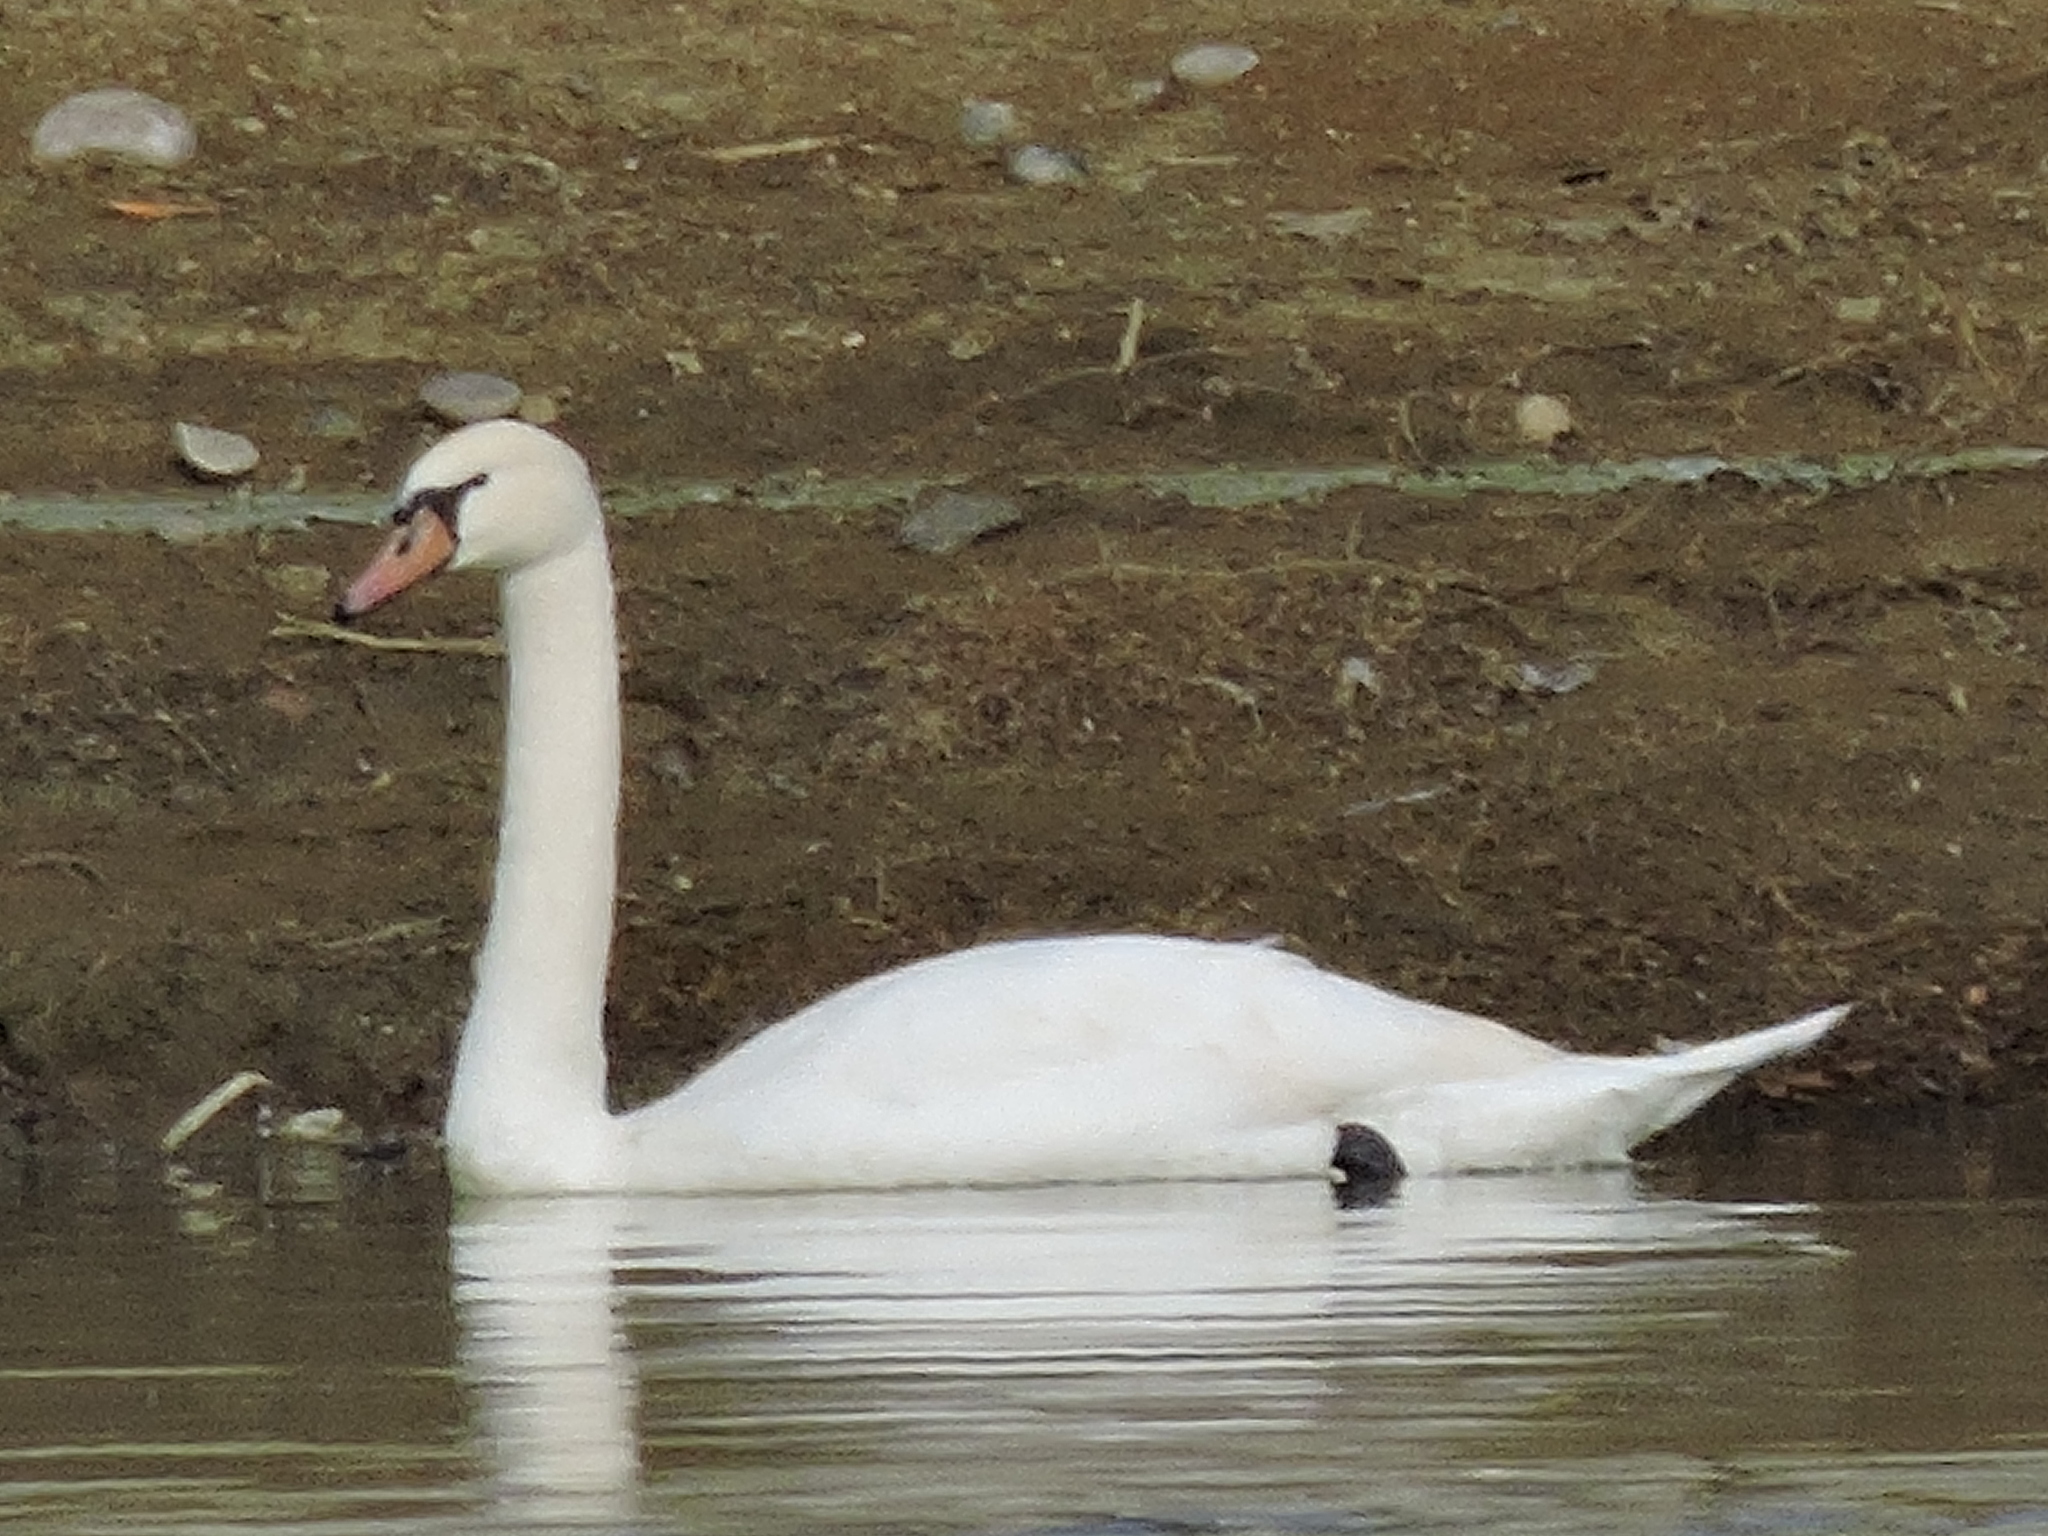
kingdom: Animalia
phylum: Chordata
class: Aves
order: Anseriformes
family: Anatidae
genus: Cygnus
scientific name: Cygnus olor
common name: Mute swan
